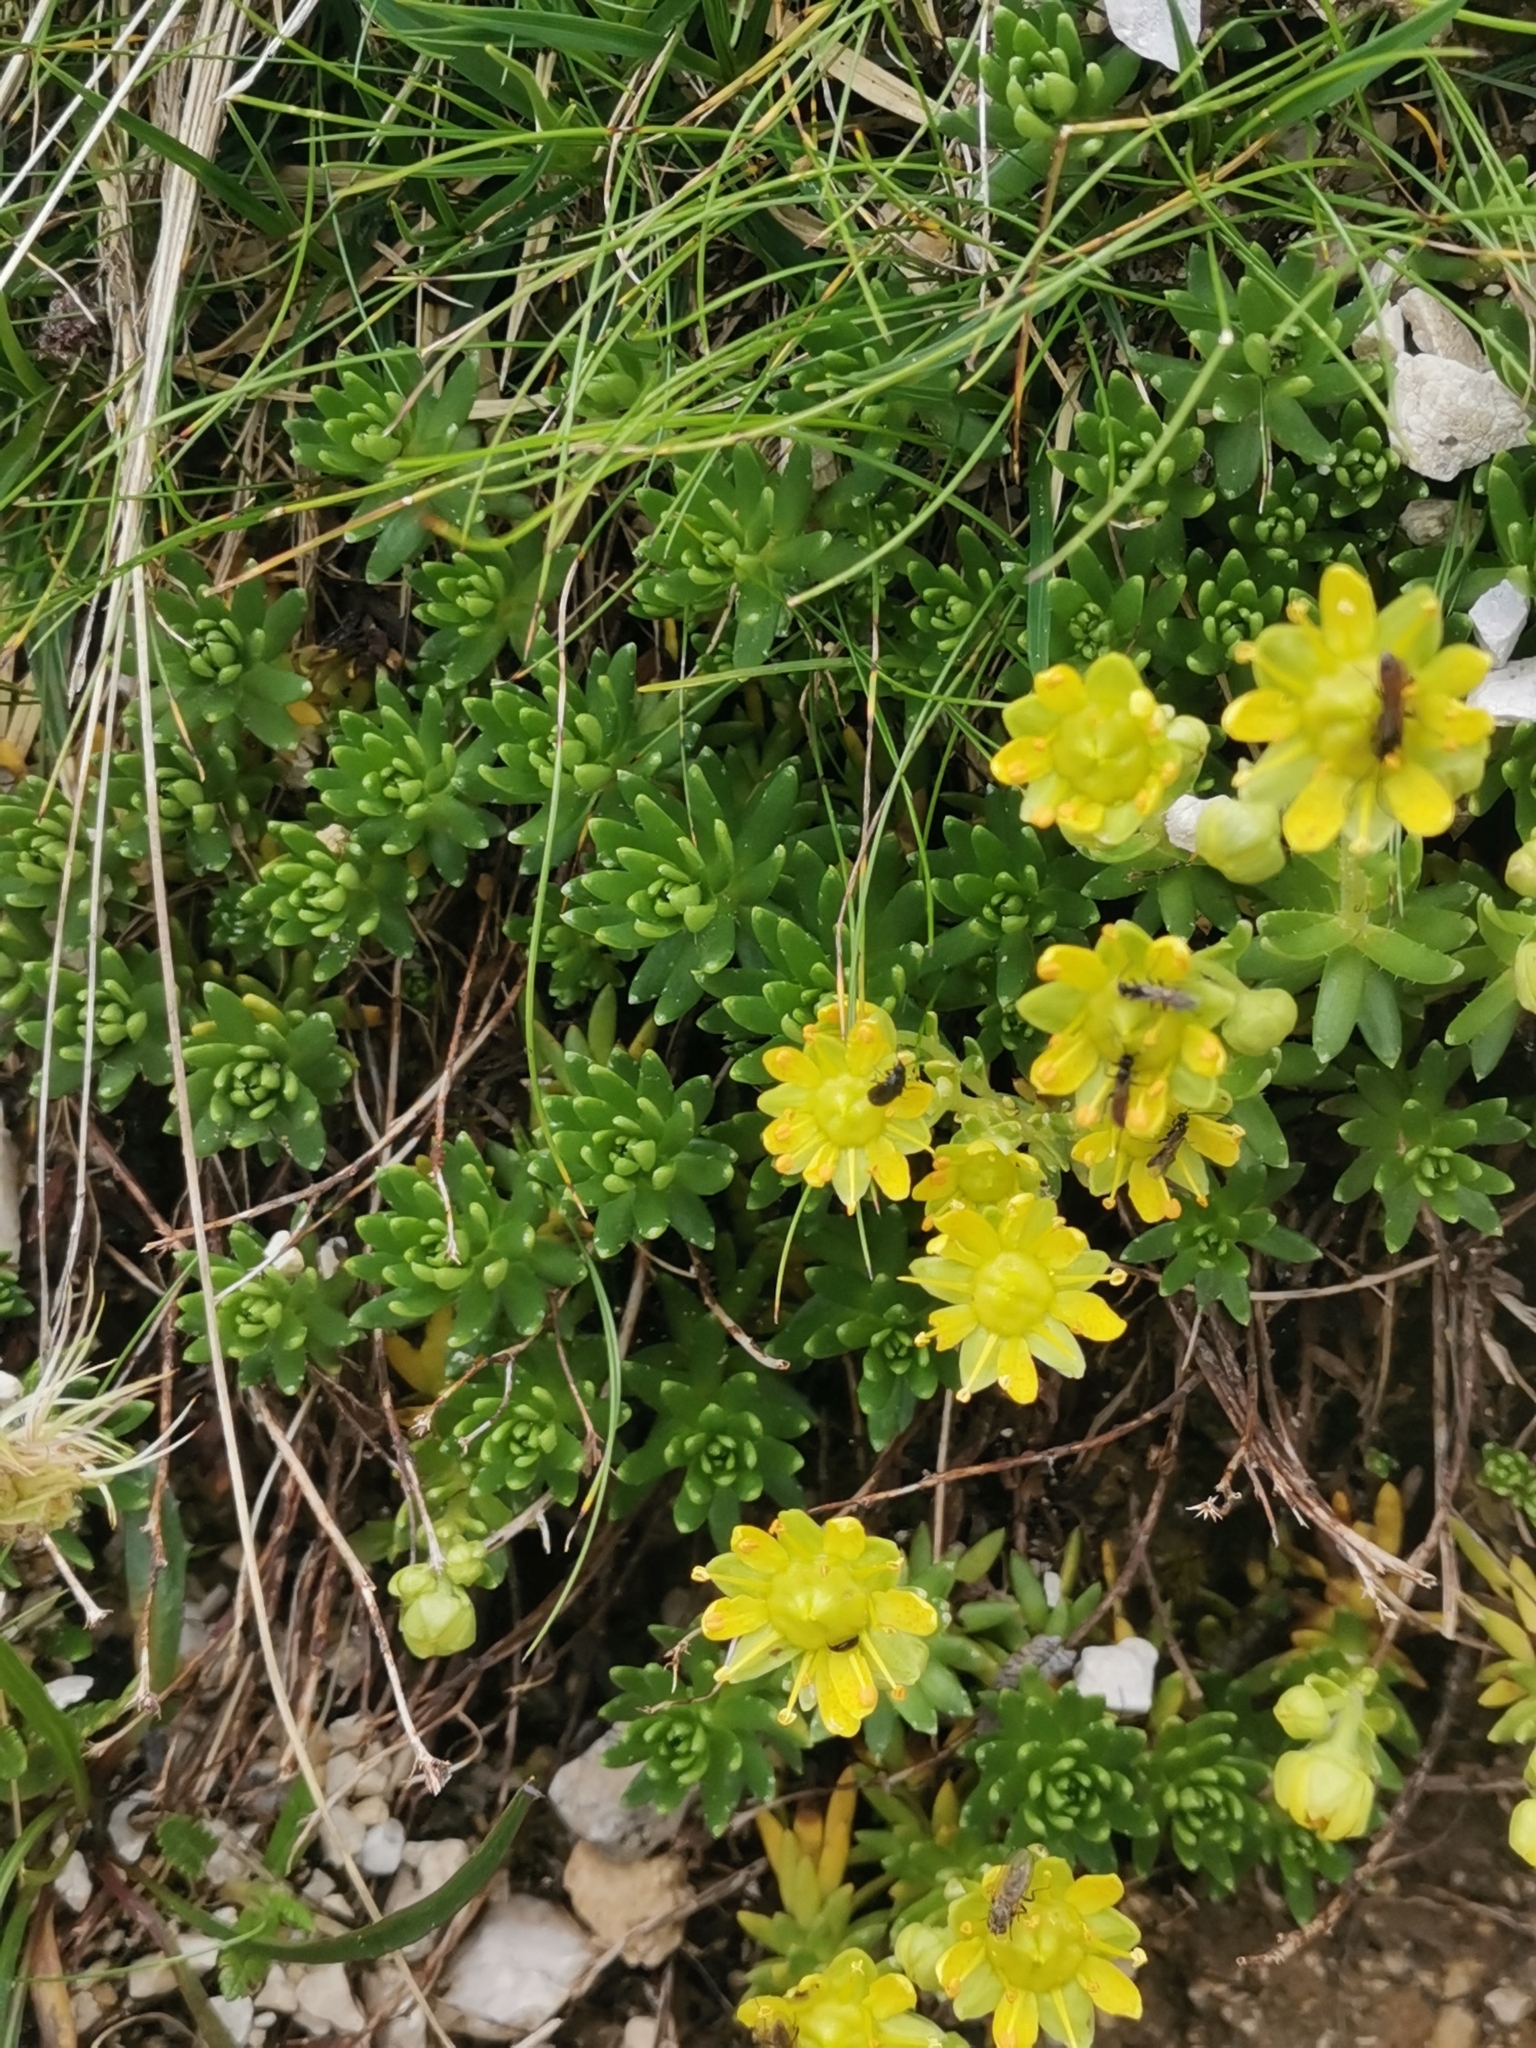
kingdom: Plantae
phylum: Tracheophyta
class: Magnoliopsida
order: Saxifragales
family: Saxifragaceae
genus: Saxifraga
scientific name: Saxifraga aizoides
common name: Yellow mountain saxifrage
